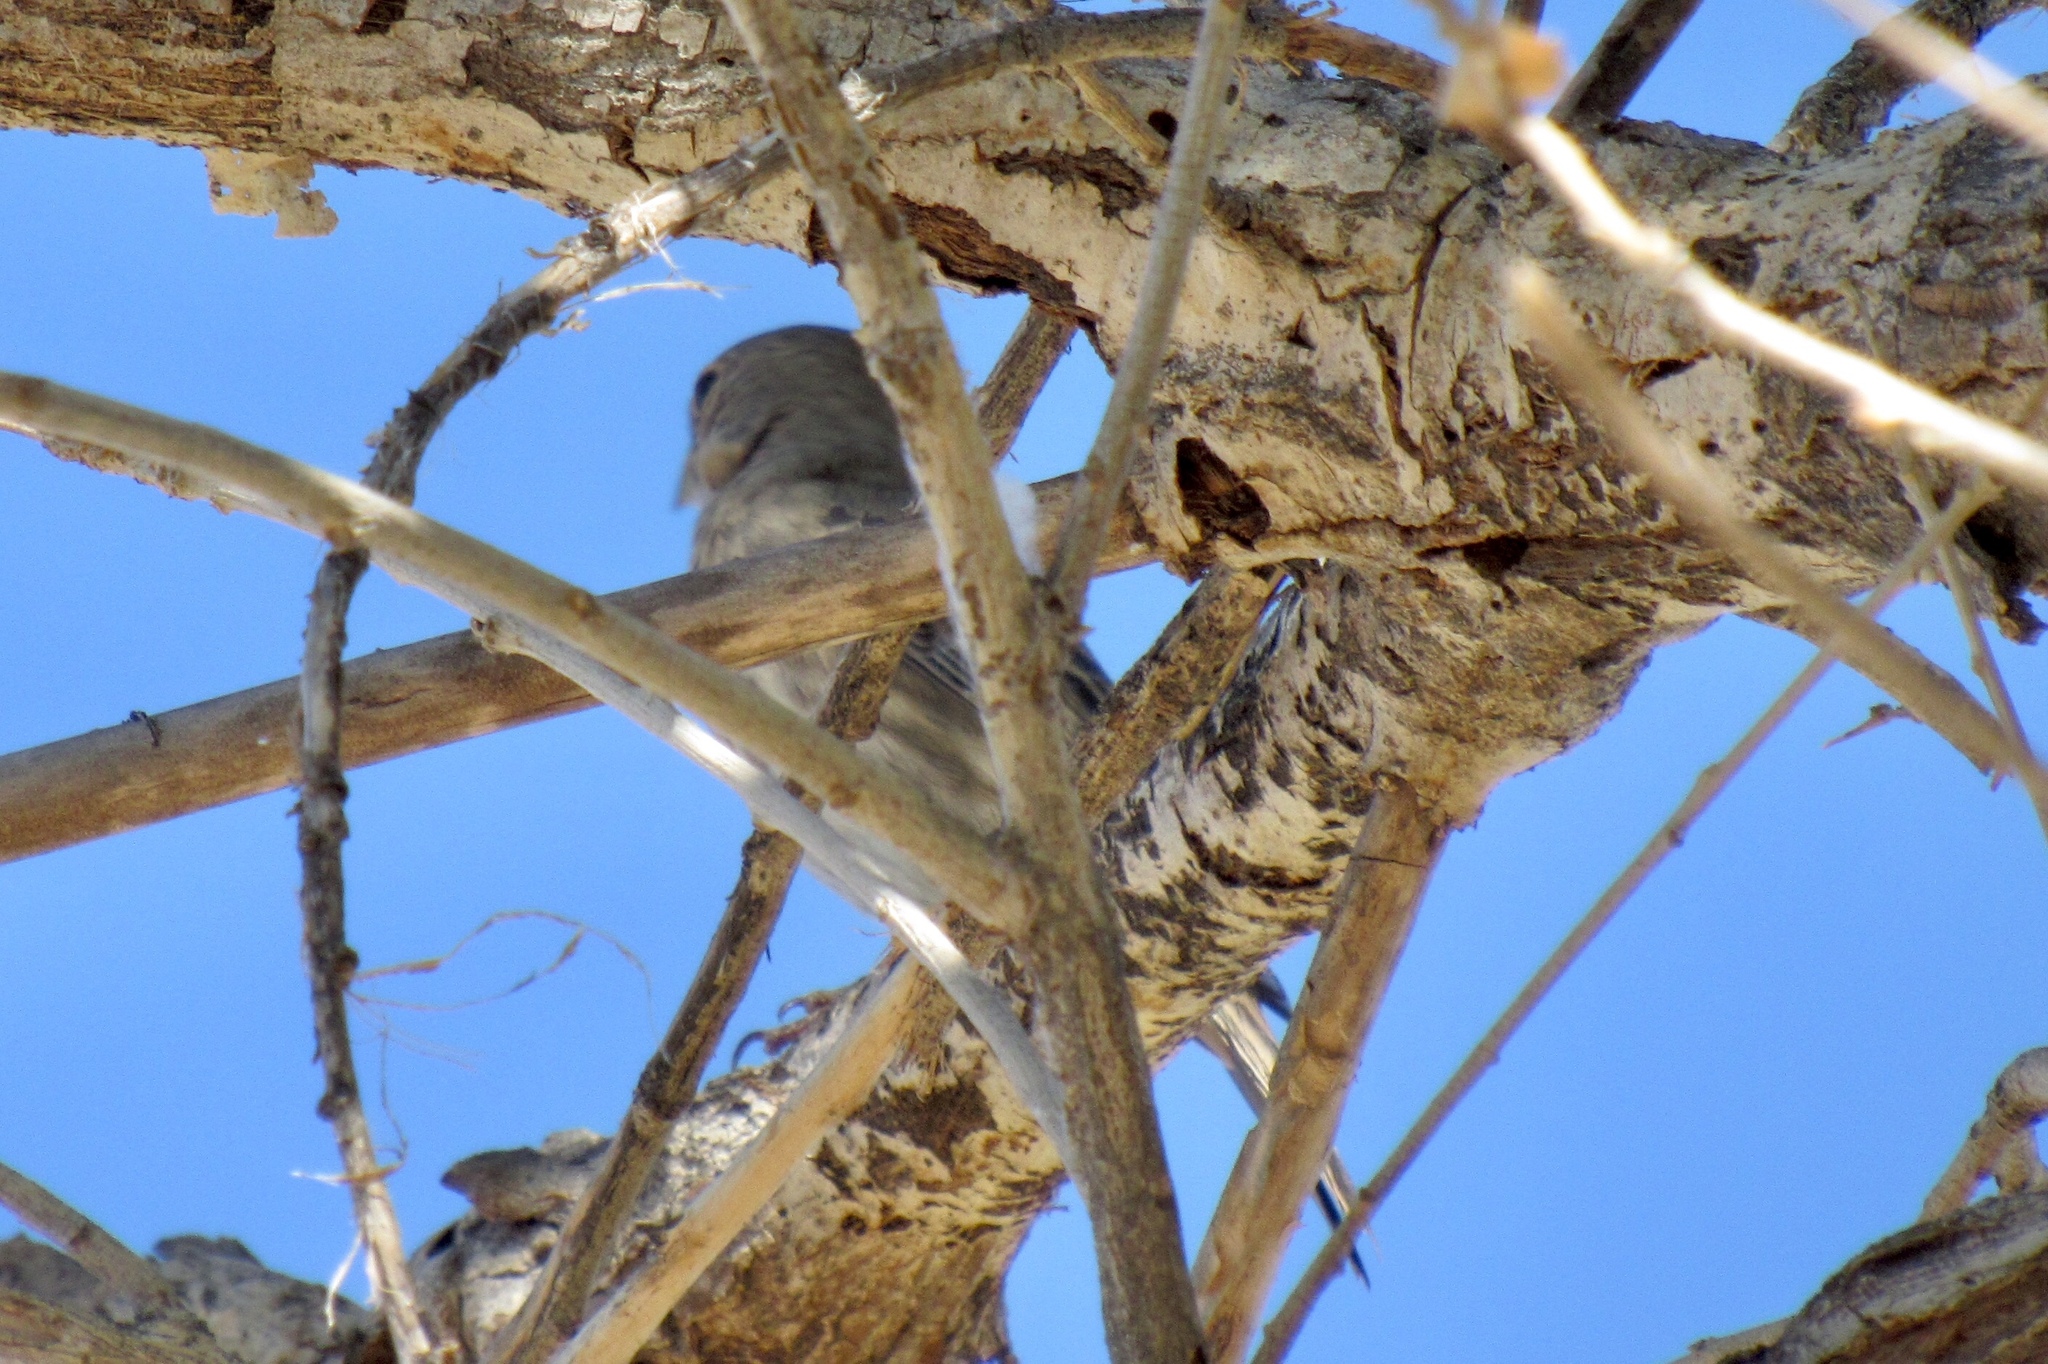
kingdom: Animalia
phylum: Chordata
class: Aves
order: Passeriformes
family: Fringillidae
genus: Haemorhous
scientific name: Haemorhous mexicanus
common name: House finch
